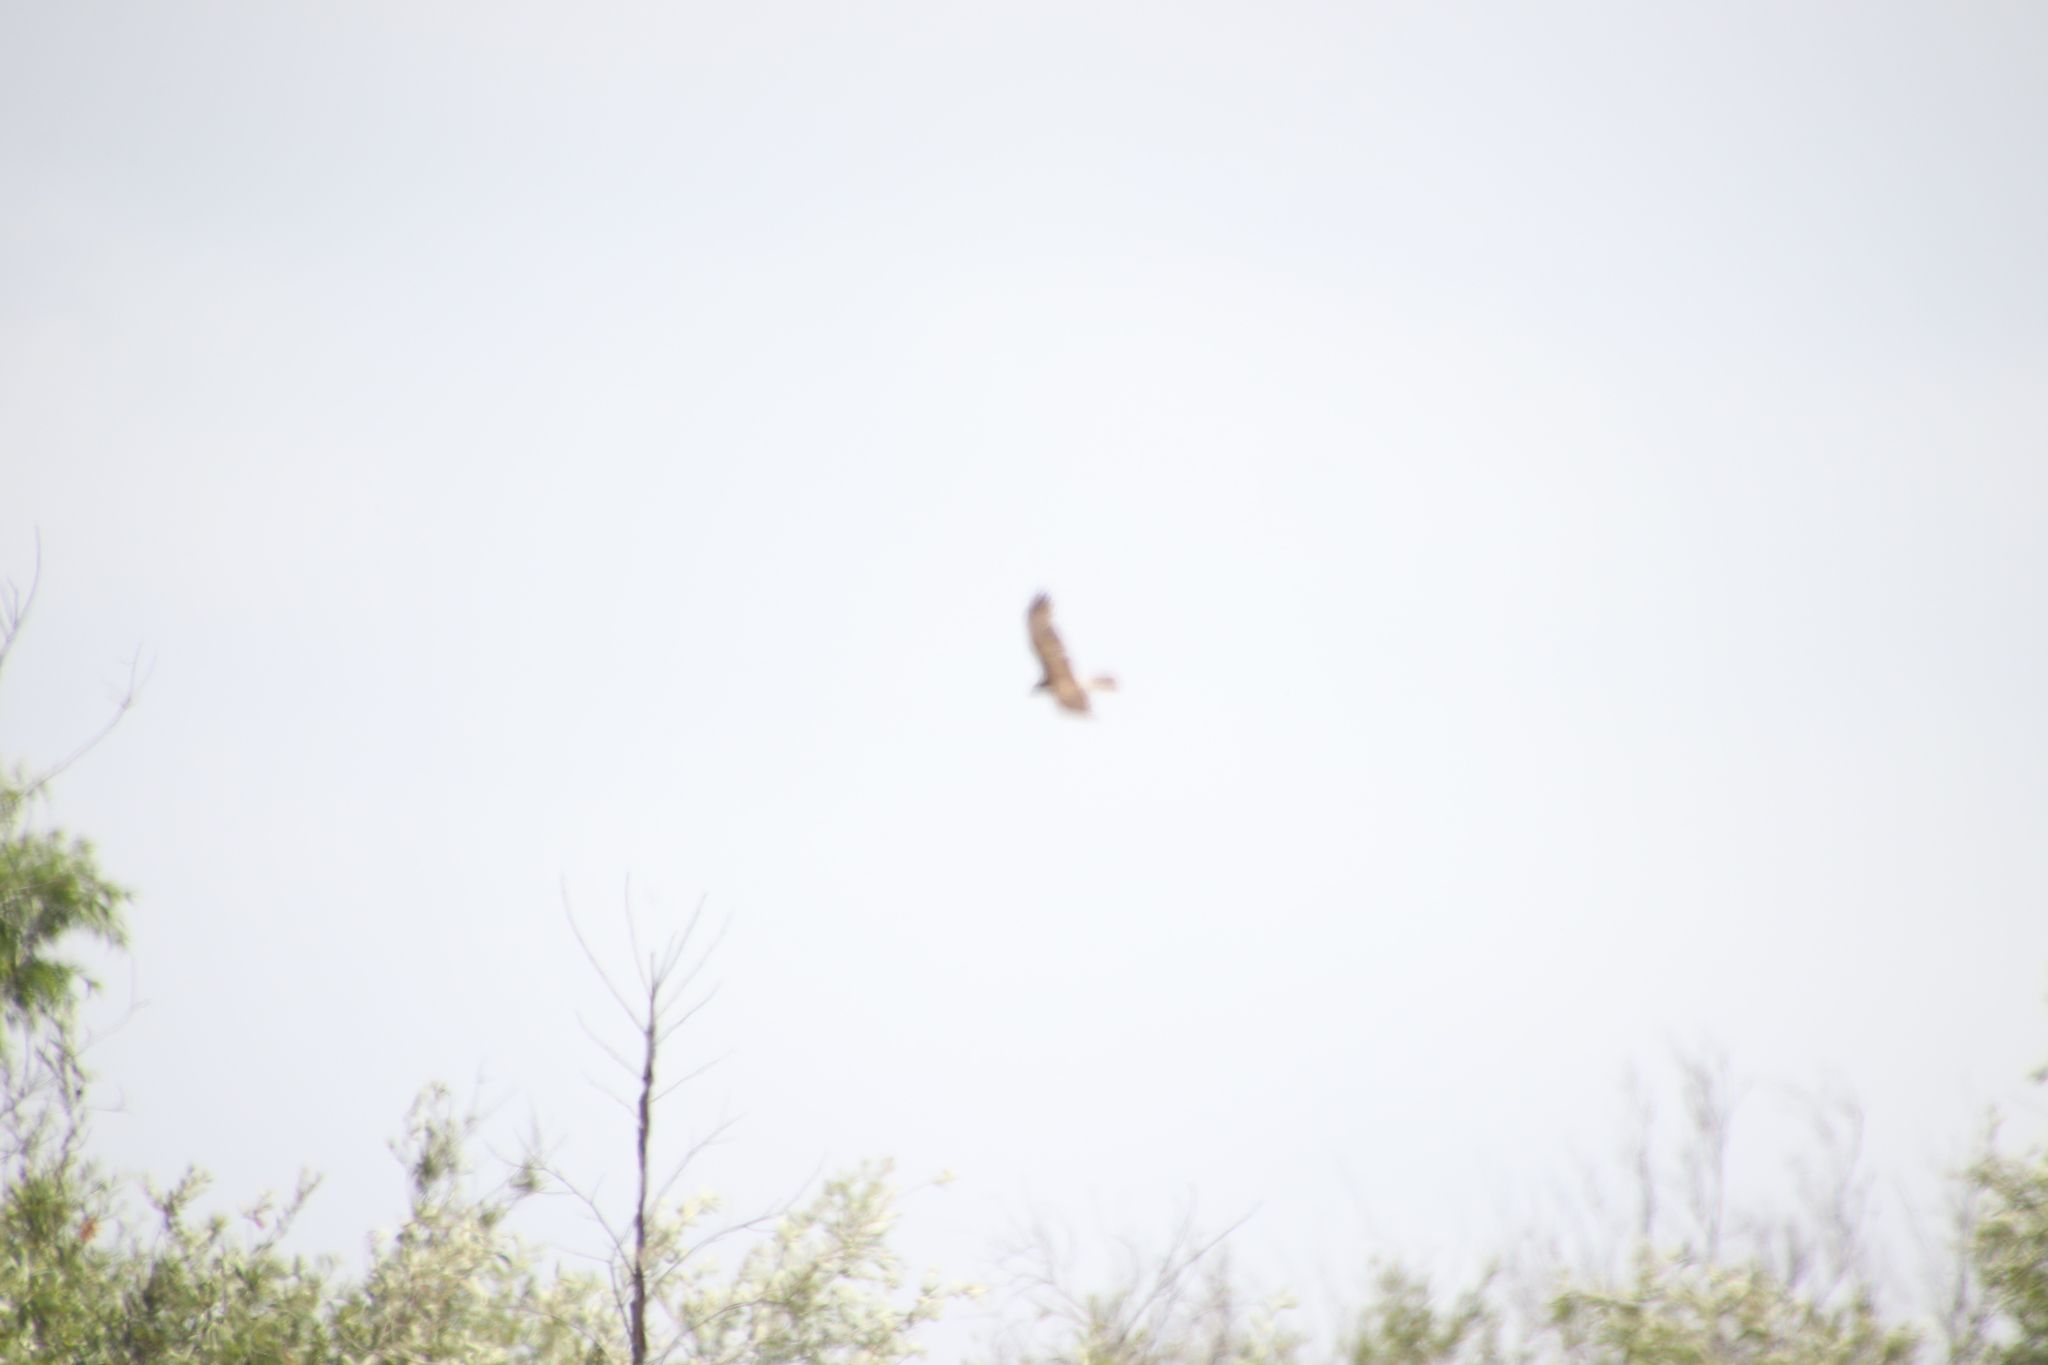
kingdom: Animalia
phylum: Chordata
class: Aves
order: Accipitriformes
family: Accipitridae
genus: Circus
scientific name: Circus cyaneus
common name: Hen harrier
